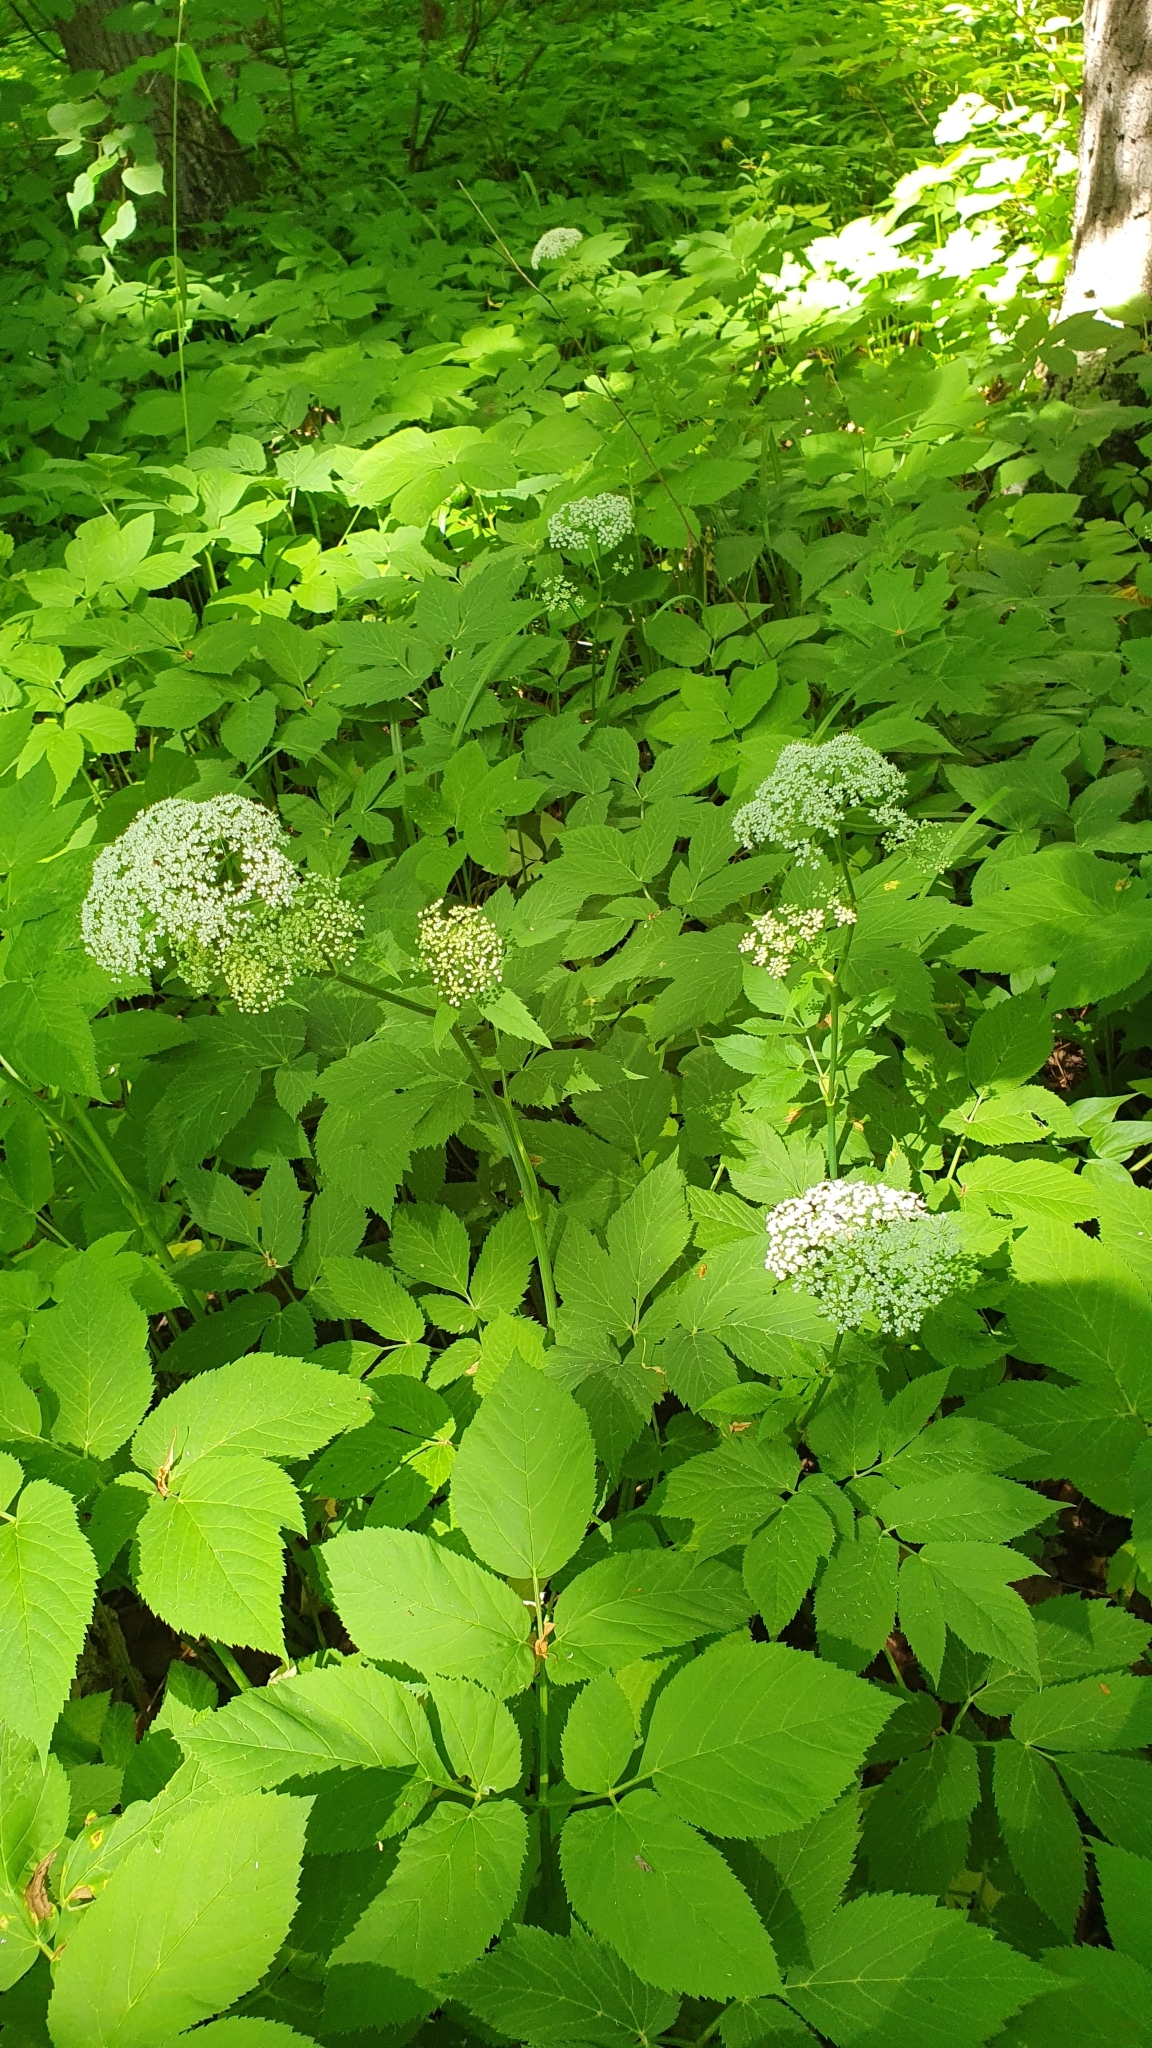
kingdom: Plantae
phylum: Tracheophyta
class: Magnoliopsida
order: Apiales
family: Apiaceae
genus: Aegopodium
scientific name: Aegopodium podagraria
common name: Ground-elder
